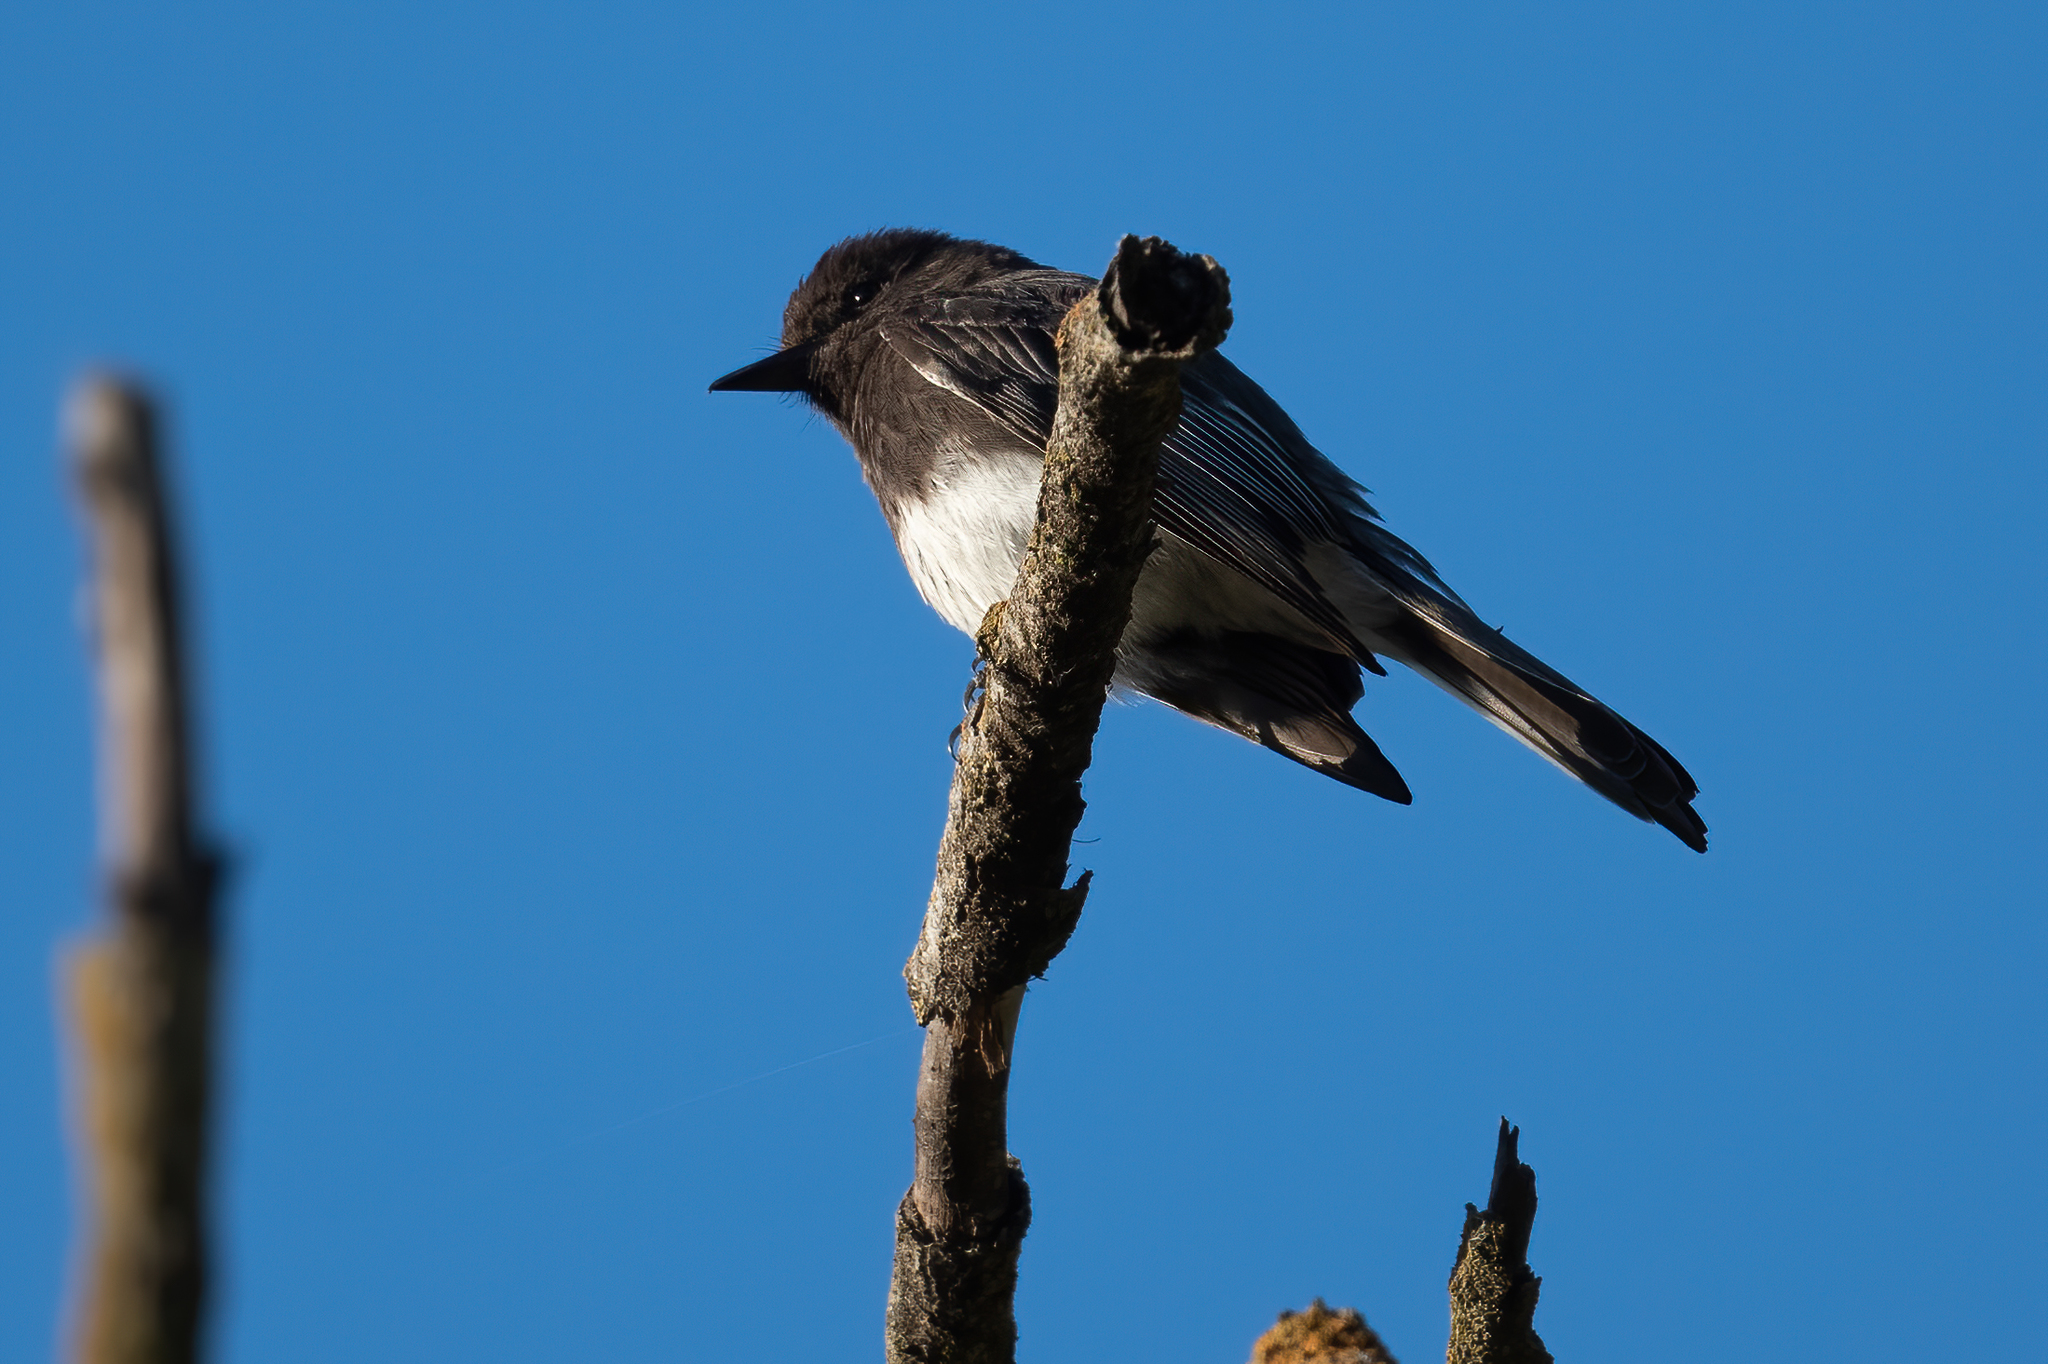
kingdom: Animalia
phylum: Chordata
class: Aves
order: Passeriformes
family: Tyrannidae
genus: Sayornis
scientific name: Sayornis nigricans
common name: Black phoebe
